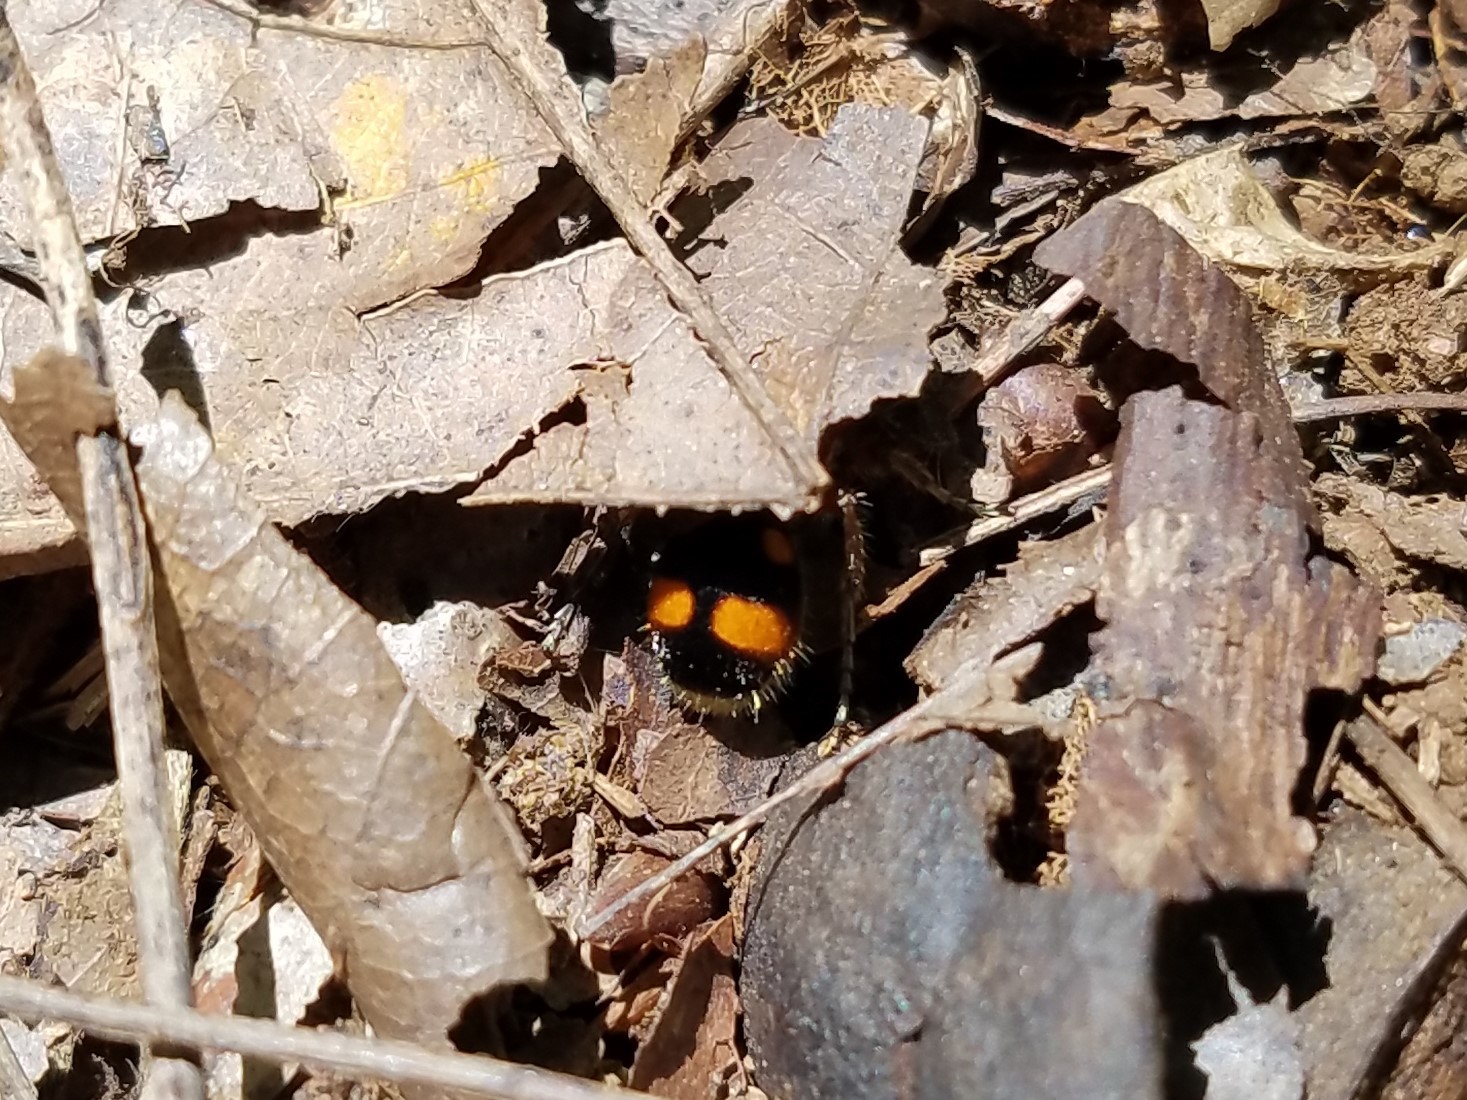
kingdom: Animalia
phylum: Arthropoda
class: Insecta
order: Hymenoptera
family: Mutillidae
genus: Dasymutilla
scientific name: Dasymutilla
